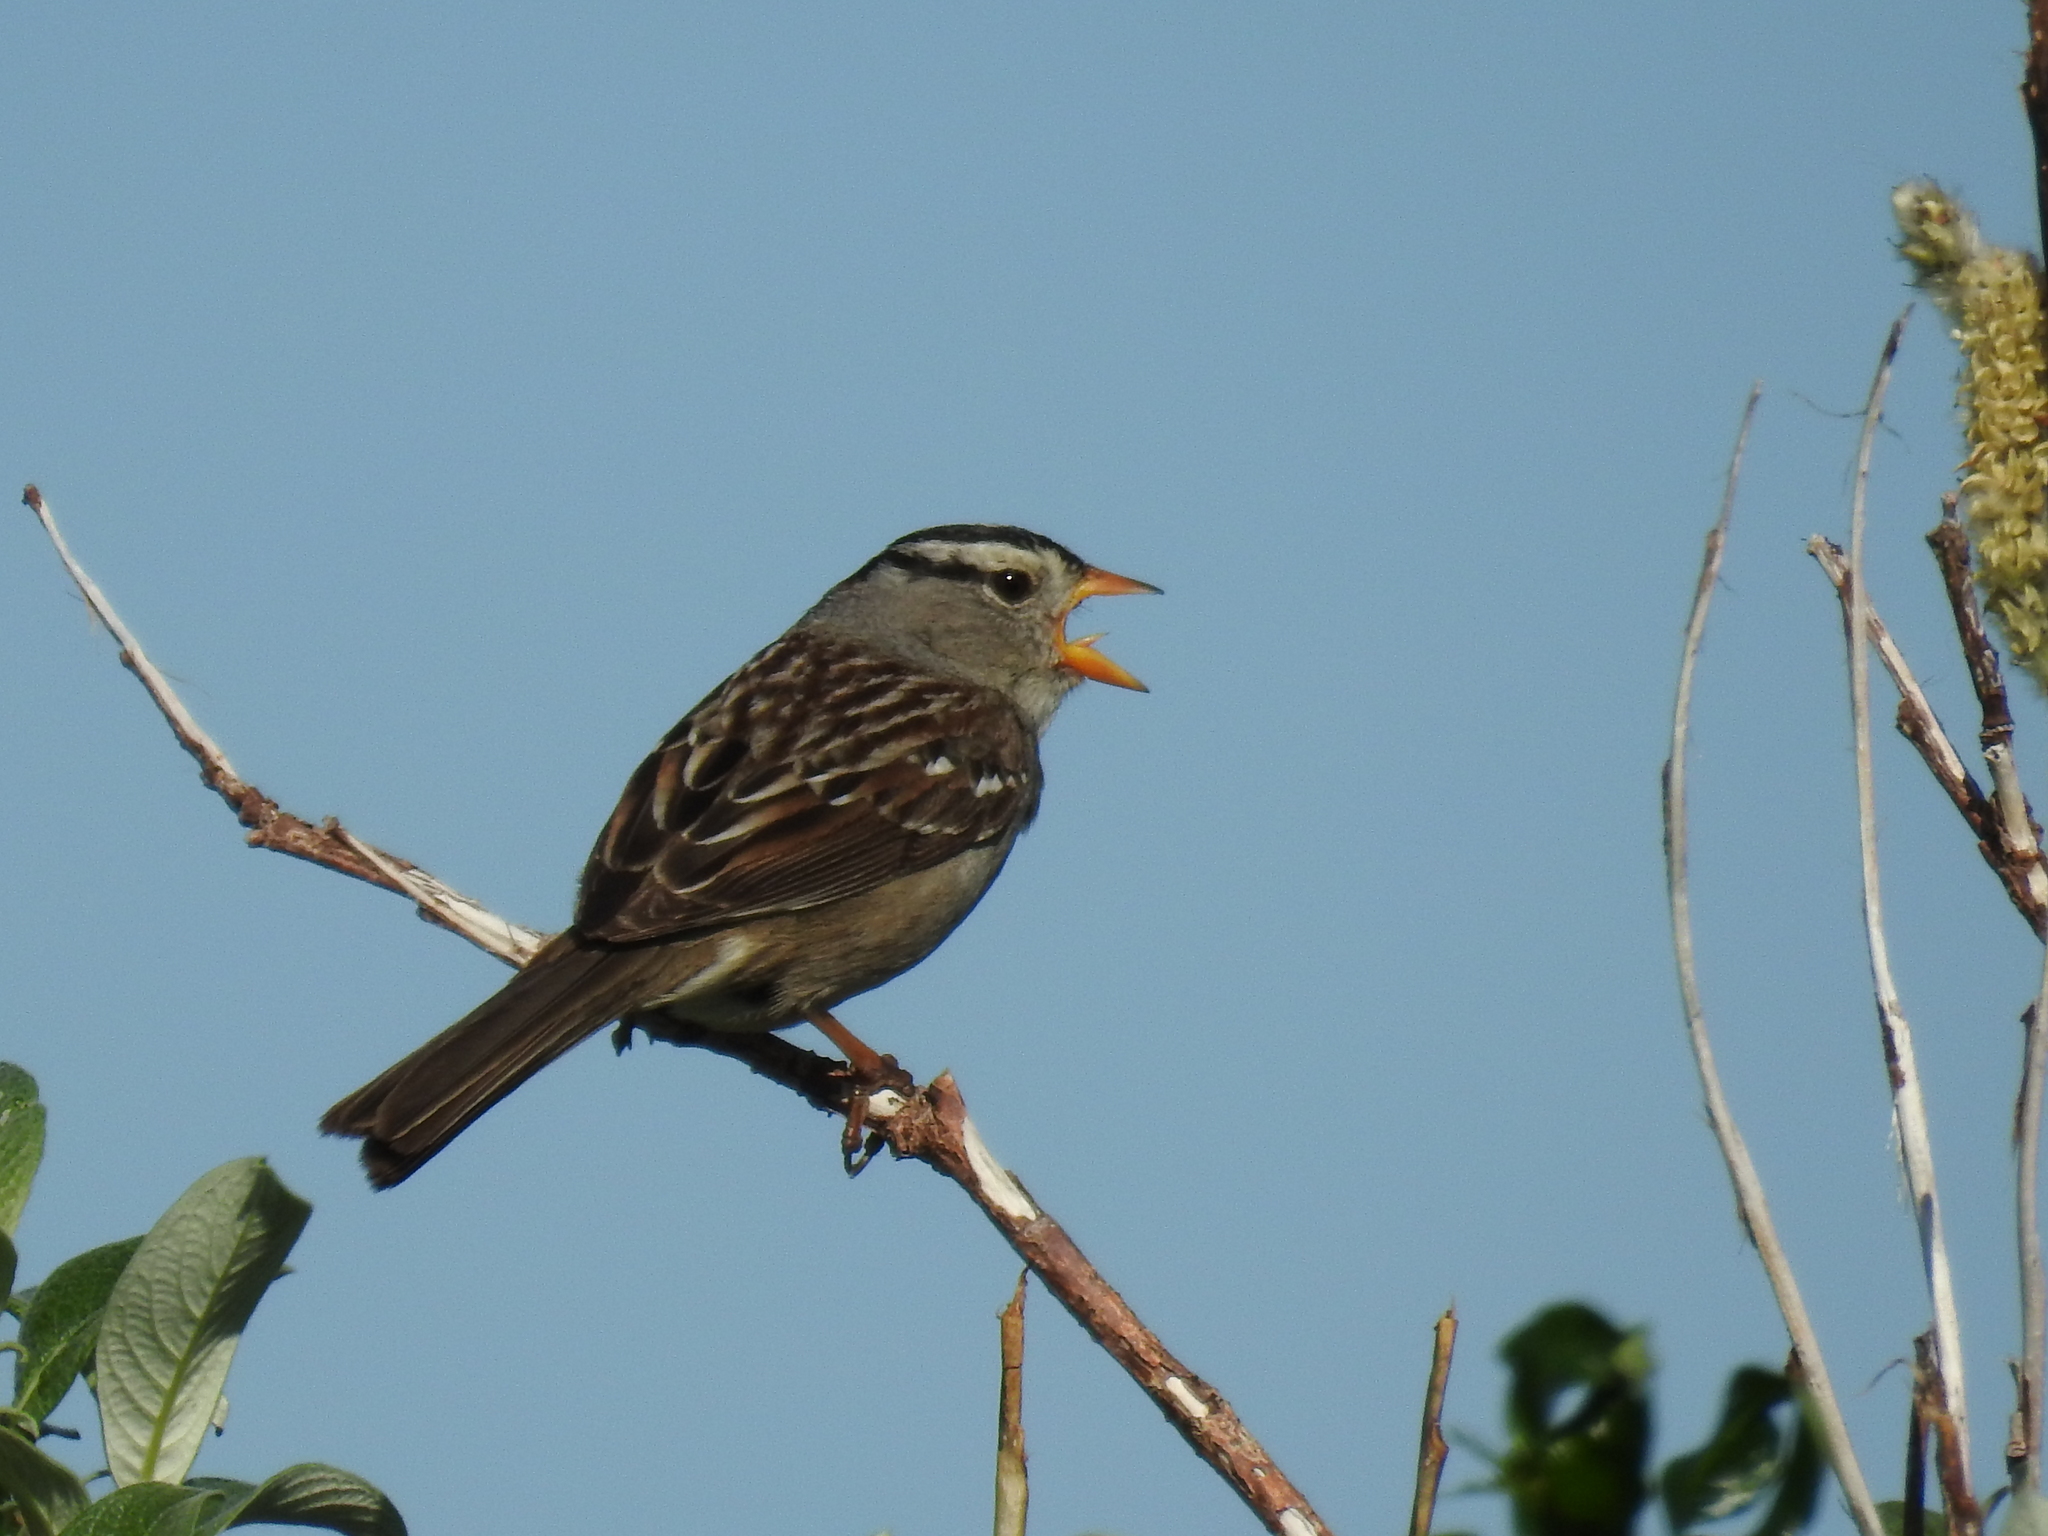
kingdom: Animalia
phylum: Chordata
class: Aves
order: Passeriformes
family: Passerellidae
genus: Zonotrichia
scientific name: Zonotrichia leucophrys
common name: White-crowned sparrow
